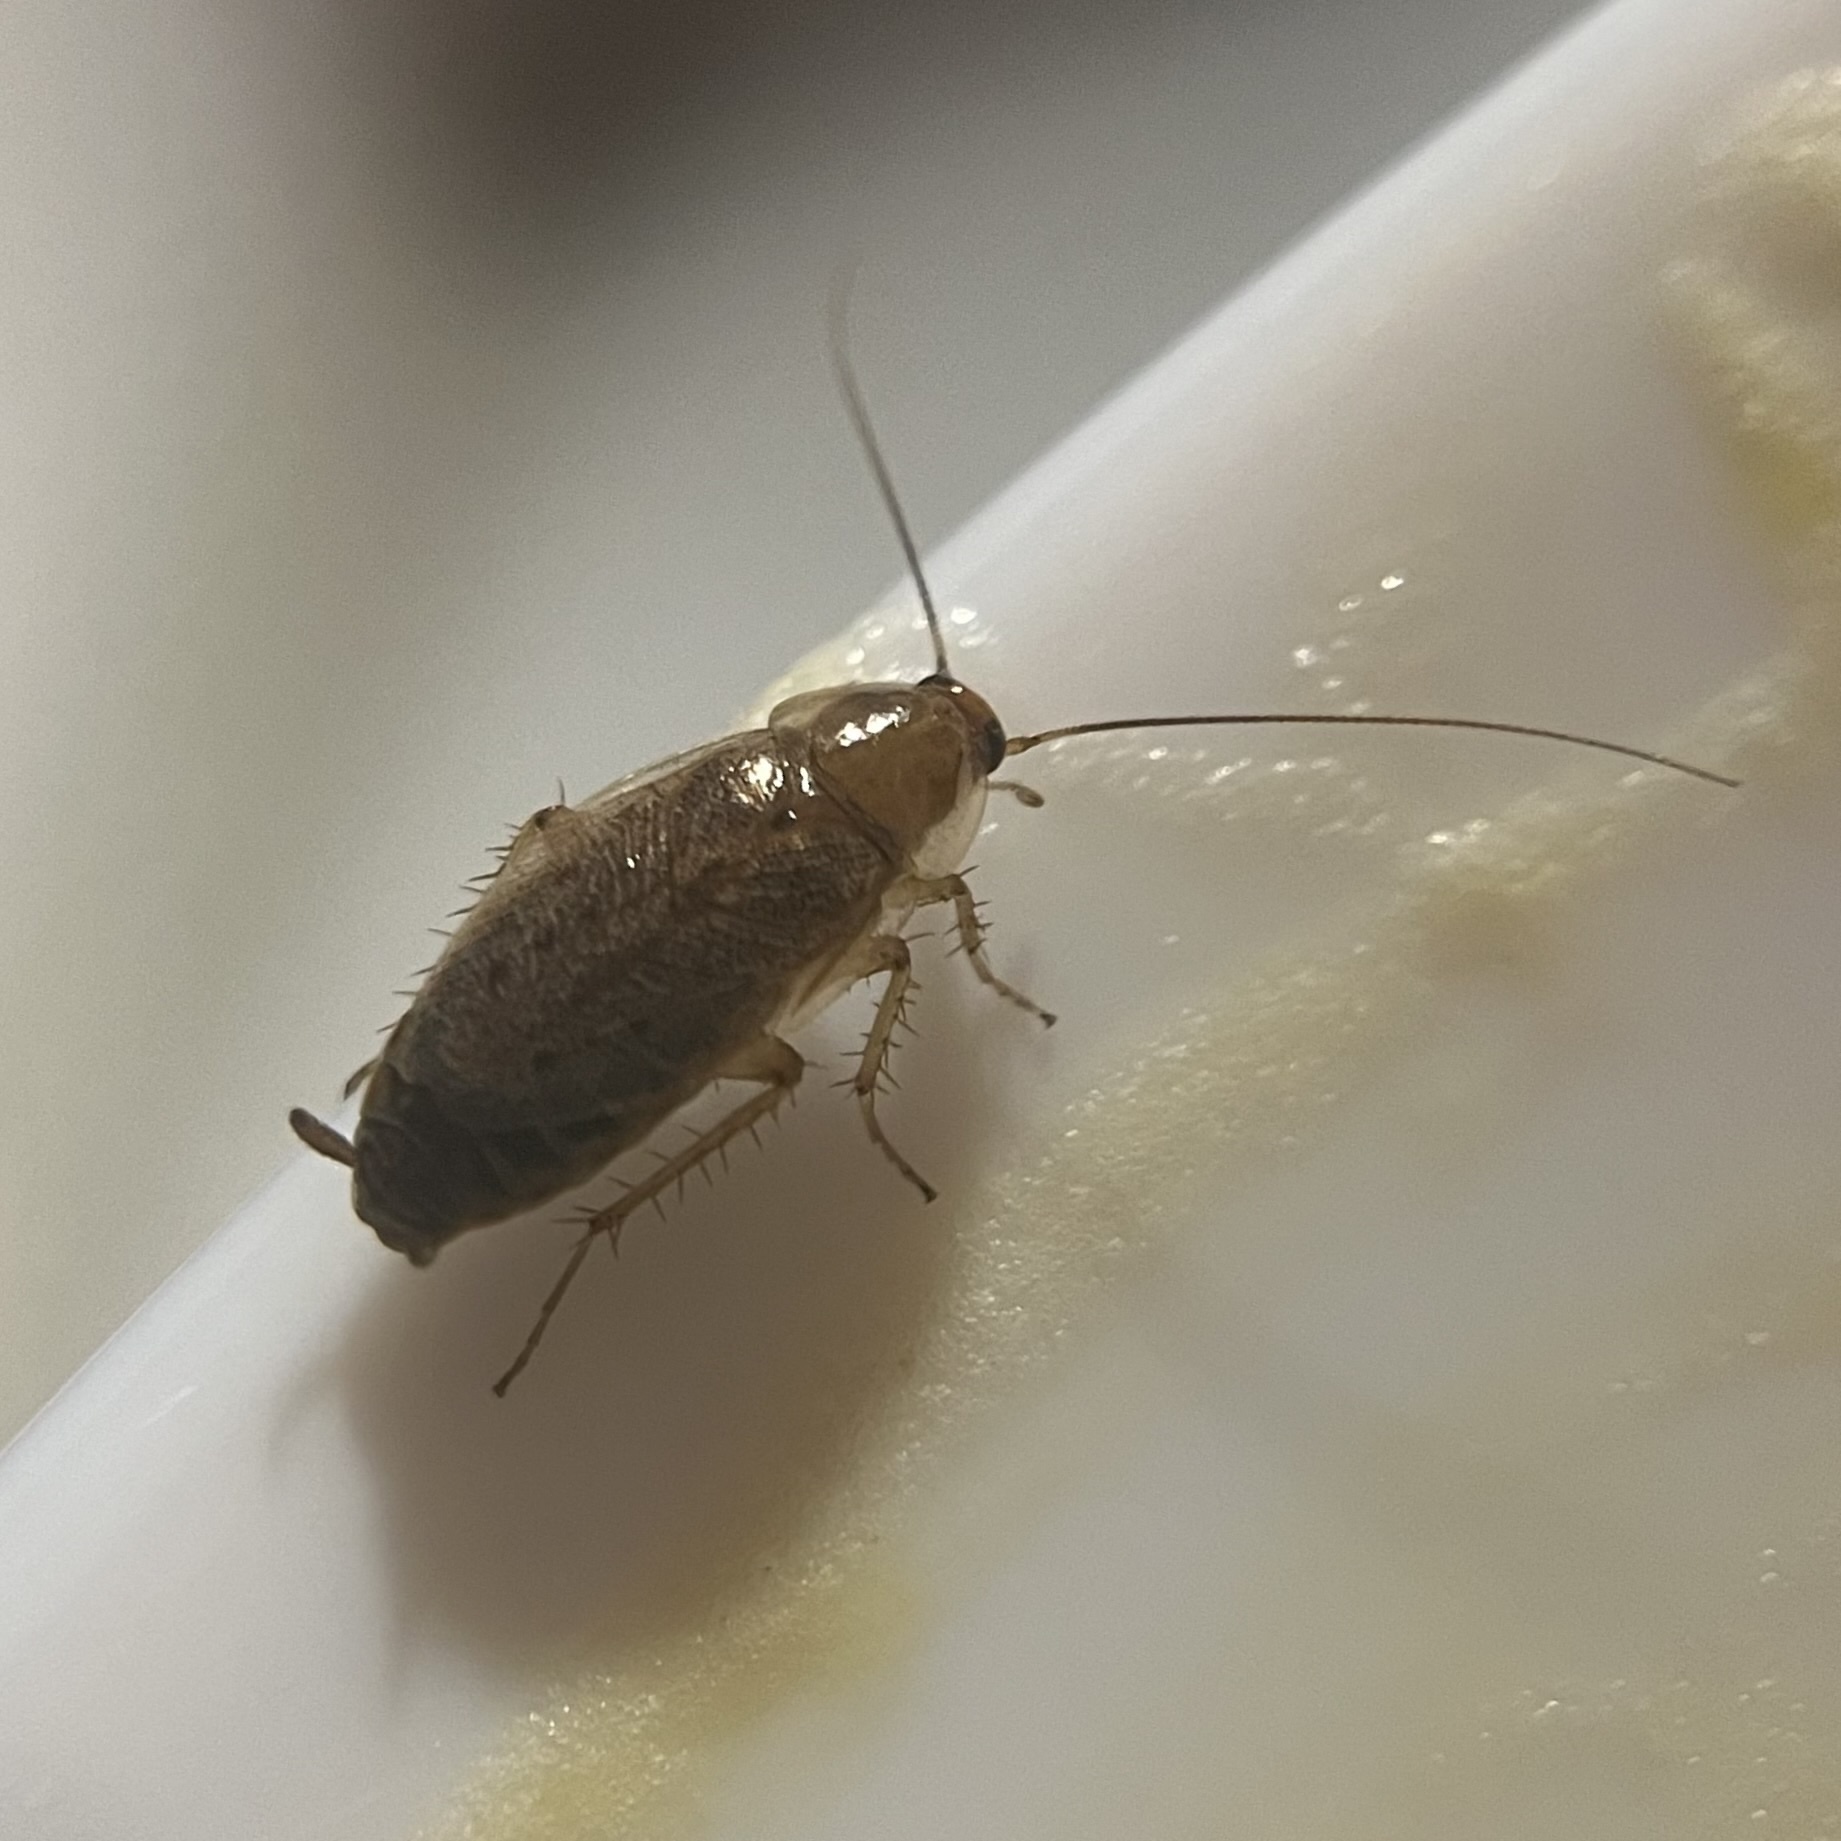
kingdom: Animalia
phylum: Arthropoda
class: Insecta
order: Blattodea
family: Ectobiidae
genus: Ectobius
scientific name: Ectobius lapponicus
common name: Dusky cockroach
